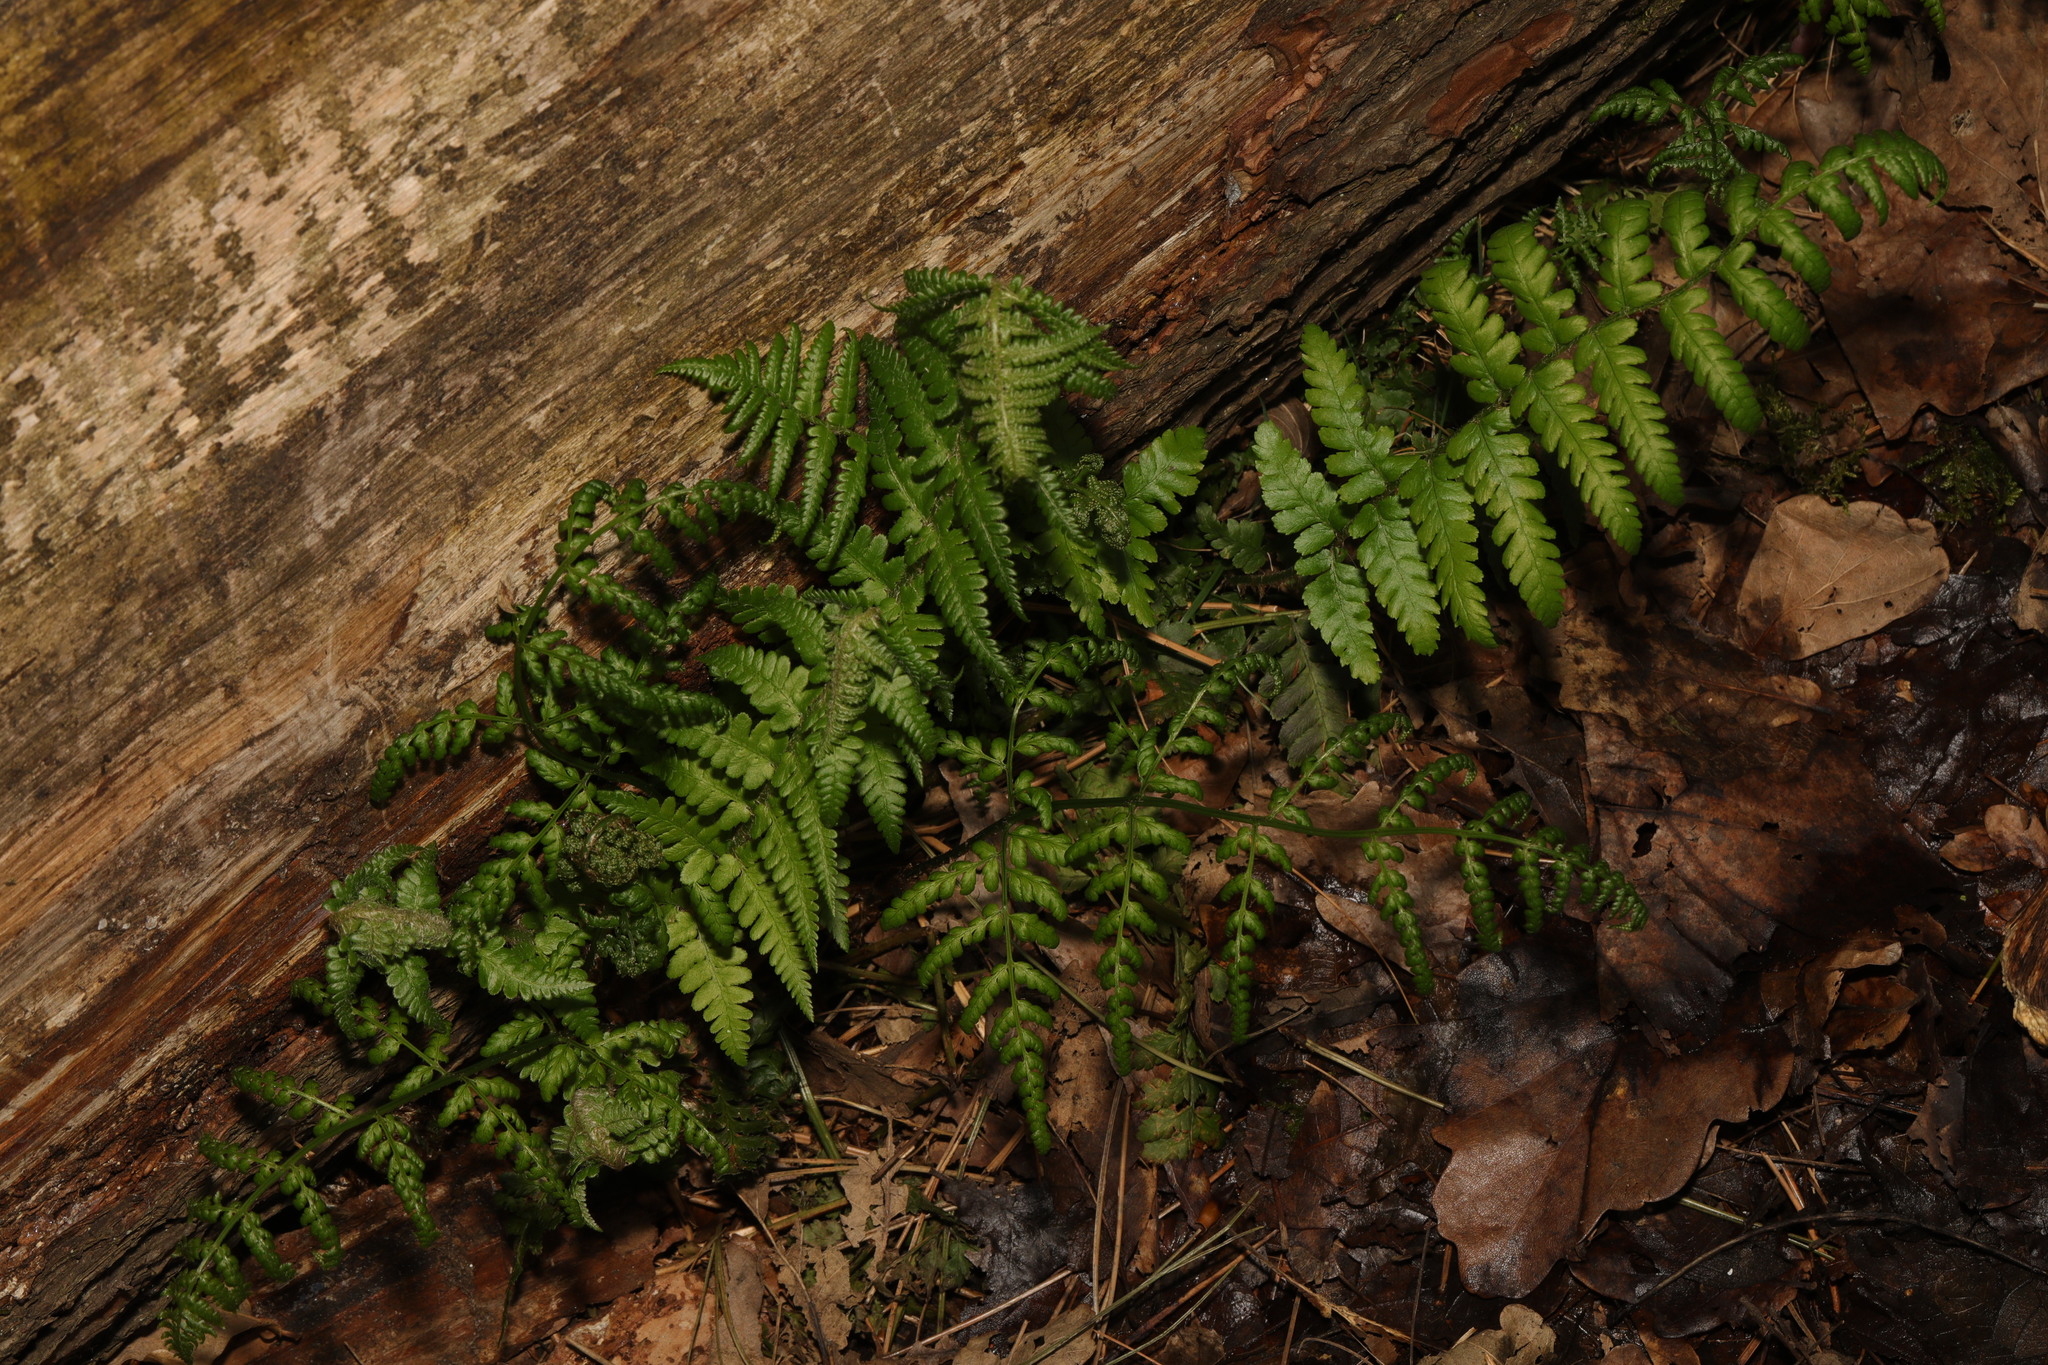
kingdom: Plantae
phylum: Tracheophyta
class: Polypodiopsida
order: Polypodiales
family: Dryopteridaceae
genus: Dryopteris
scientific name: Dryopteris filix-mas
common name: Male fern
